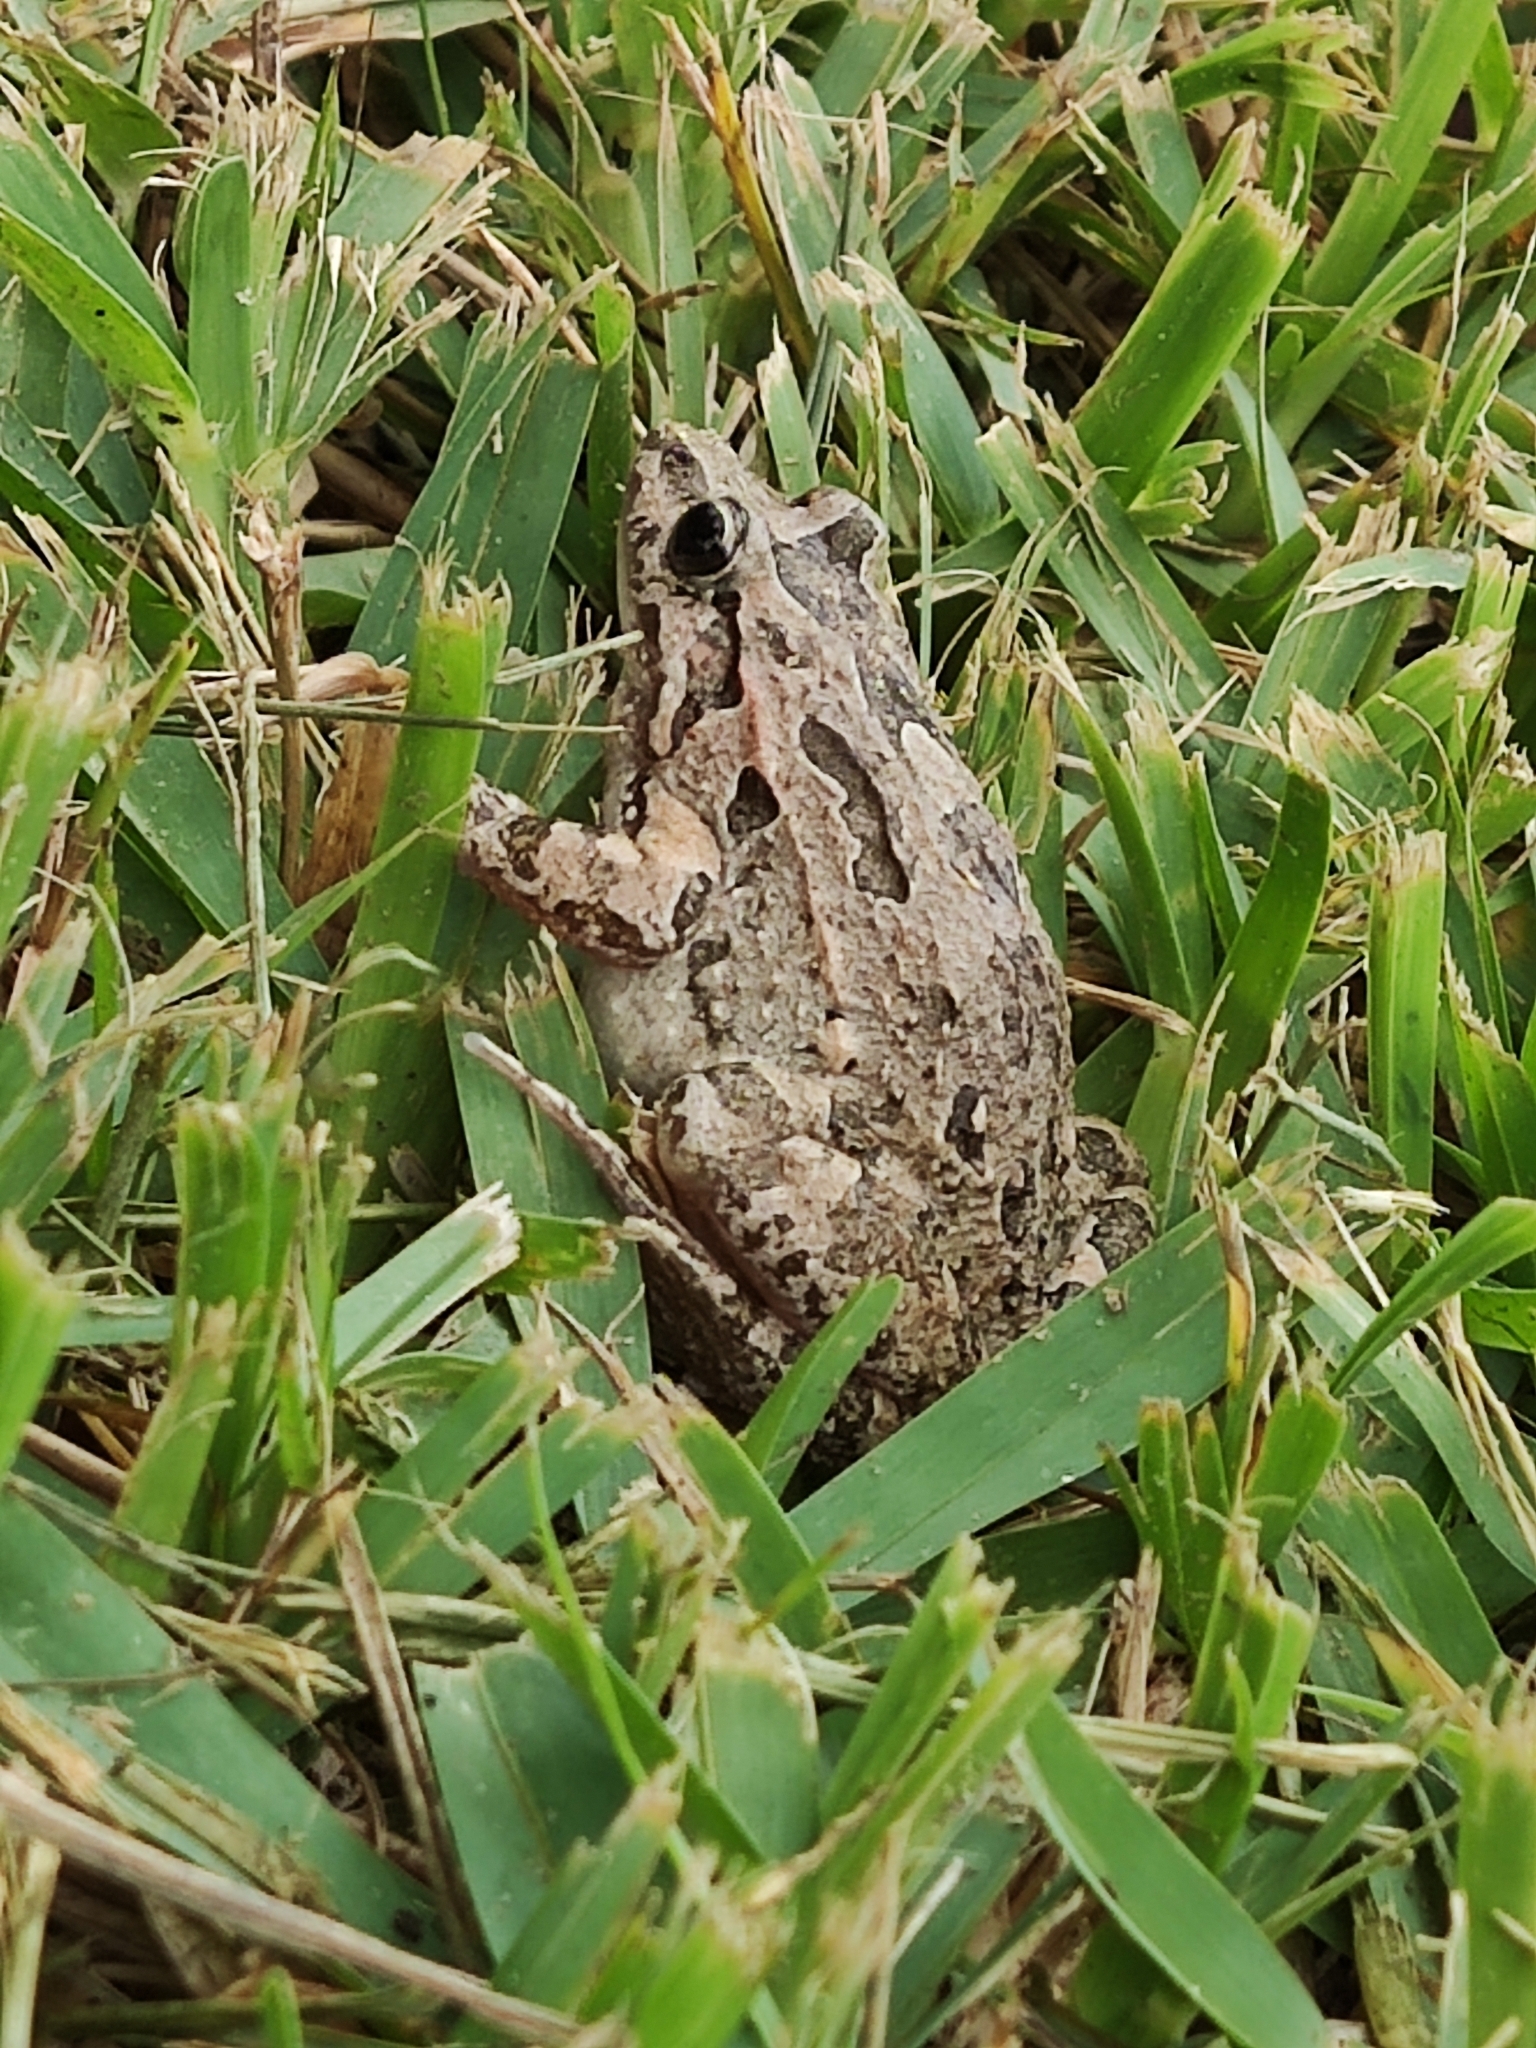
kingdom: Animalia
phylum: Chordata
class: Amphibia
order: Anura
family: Alytidae
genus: Discoglossus
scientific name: Discoglossus pictus
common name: Painted frog
